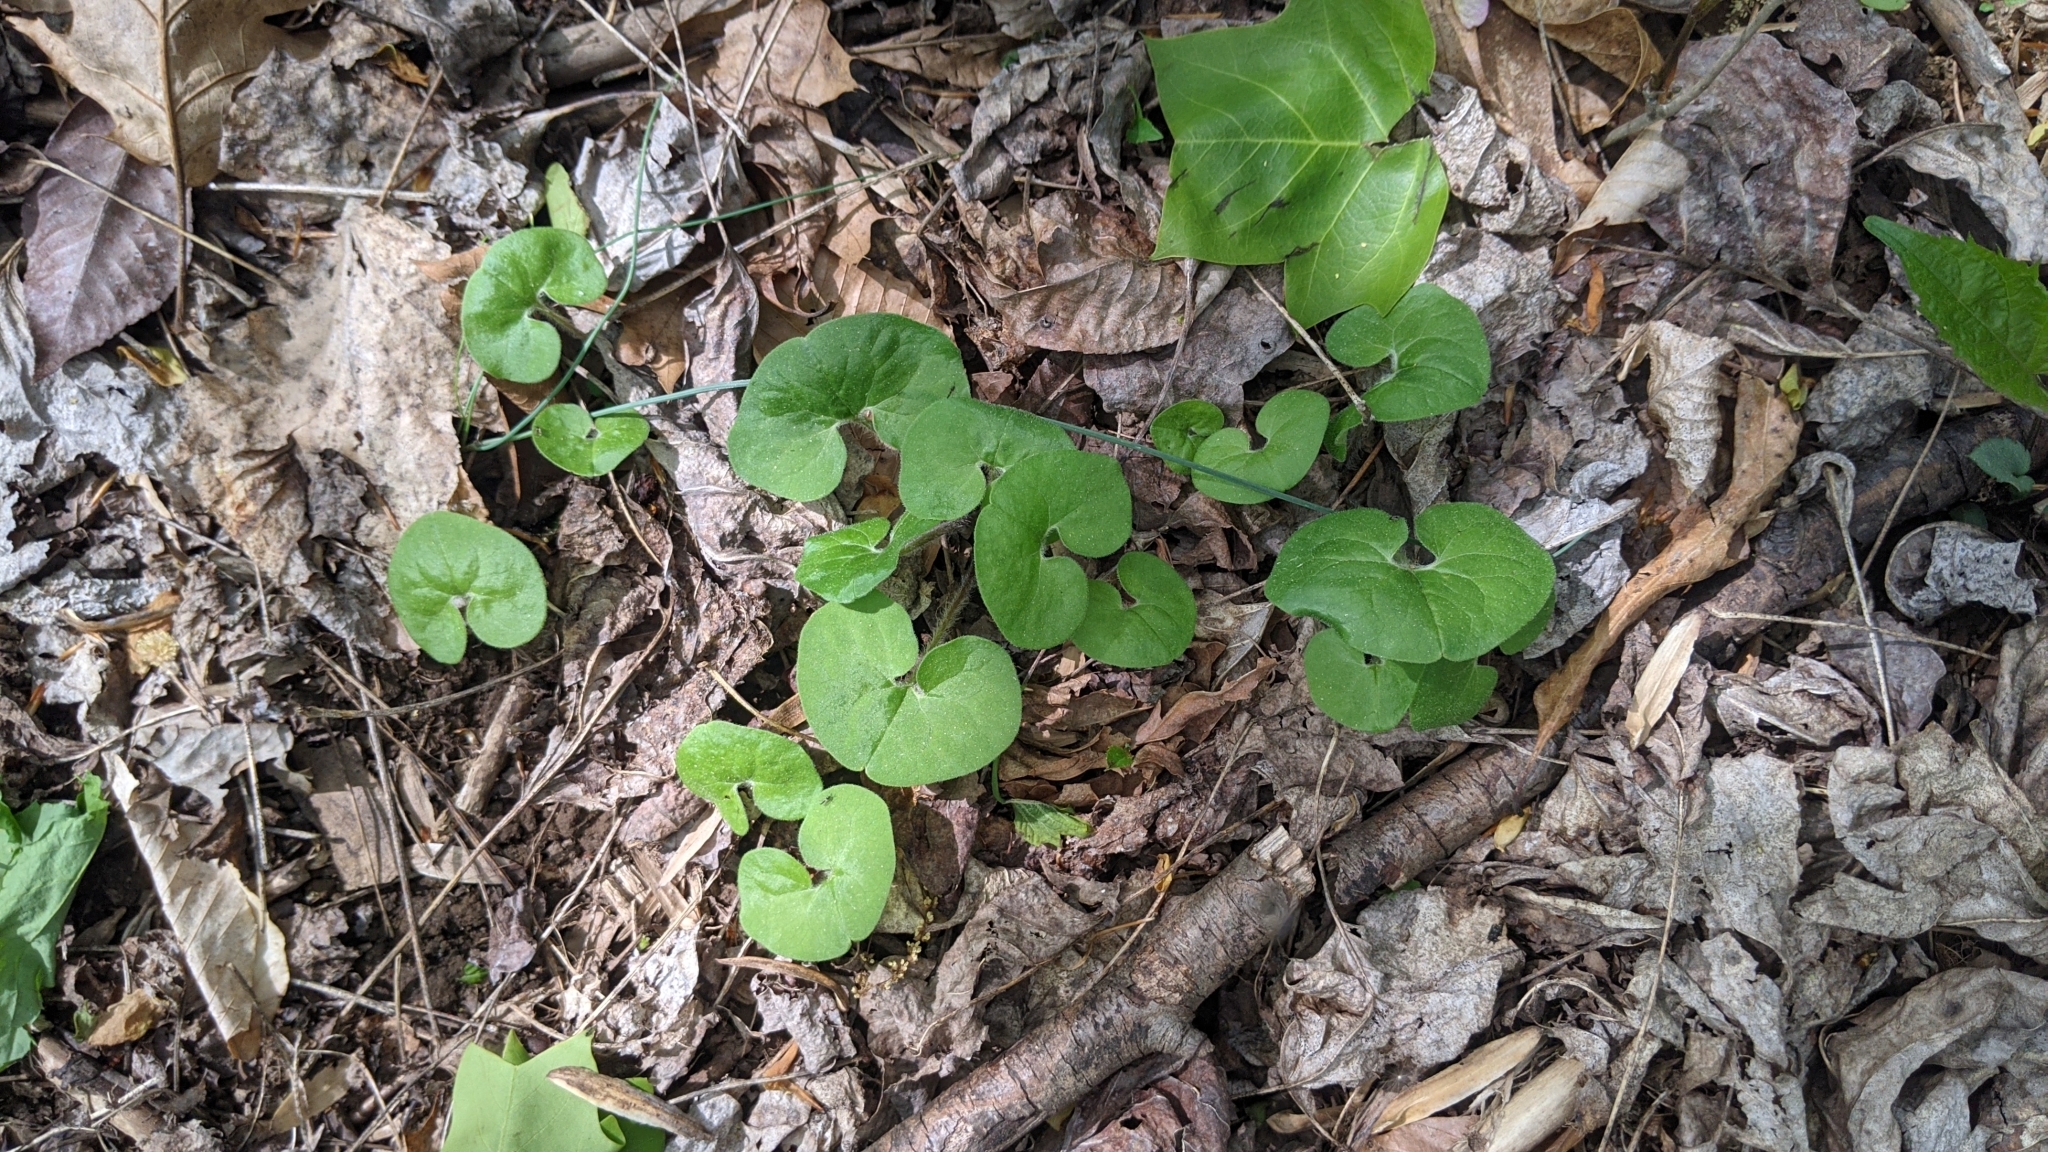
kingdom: Plantae
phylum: Tracheophyta
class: Magnoliopsida
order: Piperales
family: Aristolochiaceae
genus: Asarum
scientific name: Asarum canadense
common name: Wild ginger
